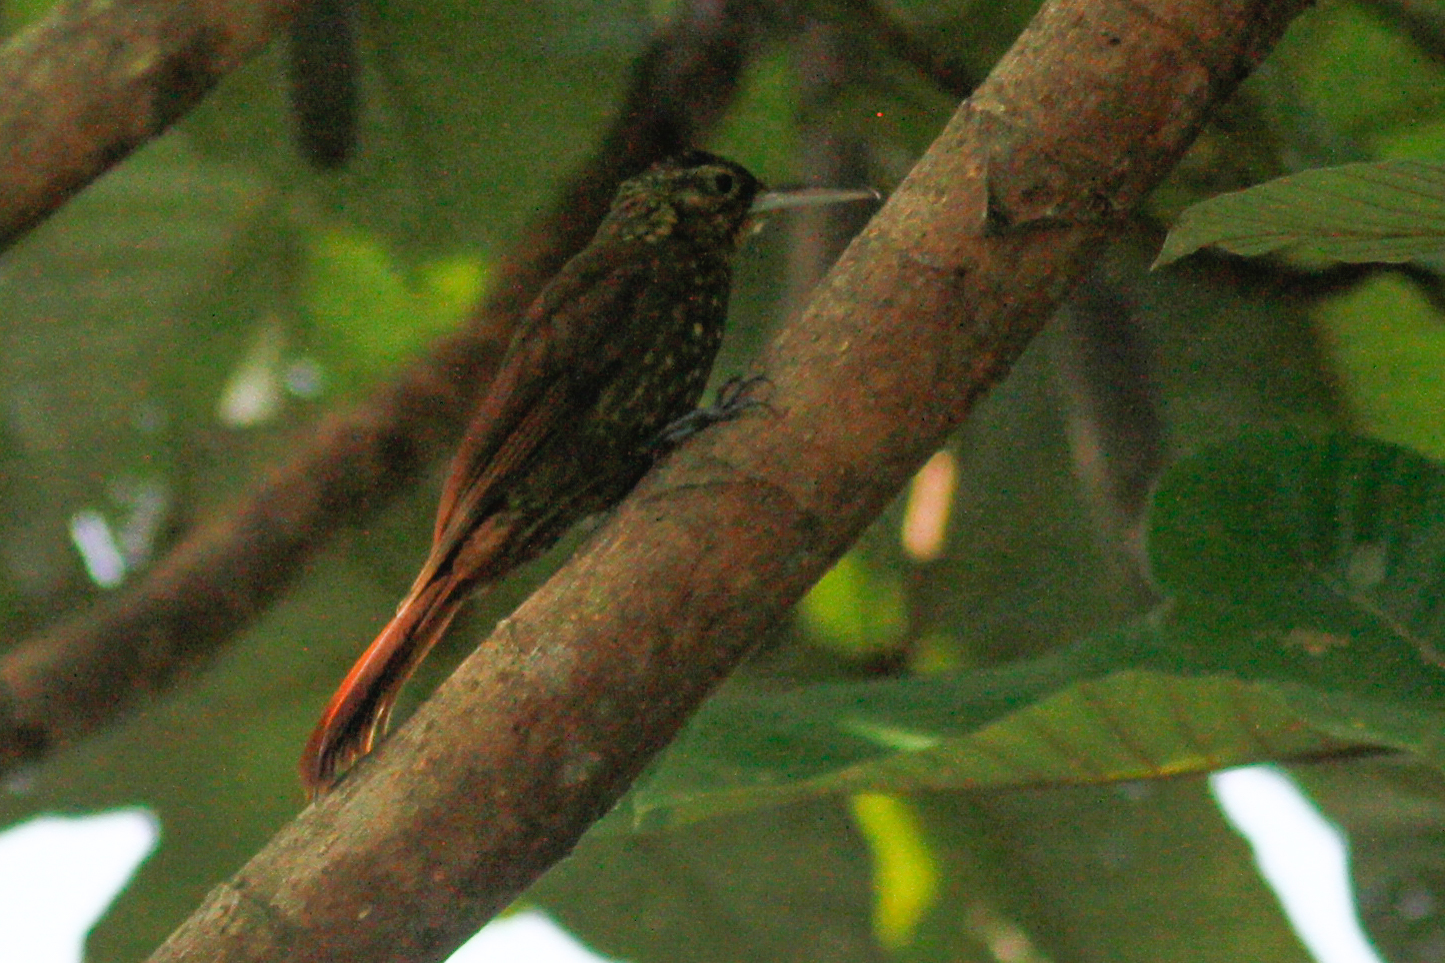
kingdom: Animalia
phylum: Chordata
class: Aves
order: Passeriformes
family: Furnariidae
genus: Xiphorhynchus
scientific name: Xiphorhynchus erythropygius
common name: Spotted woodcreeper
